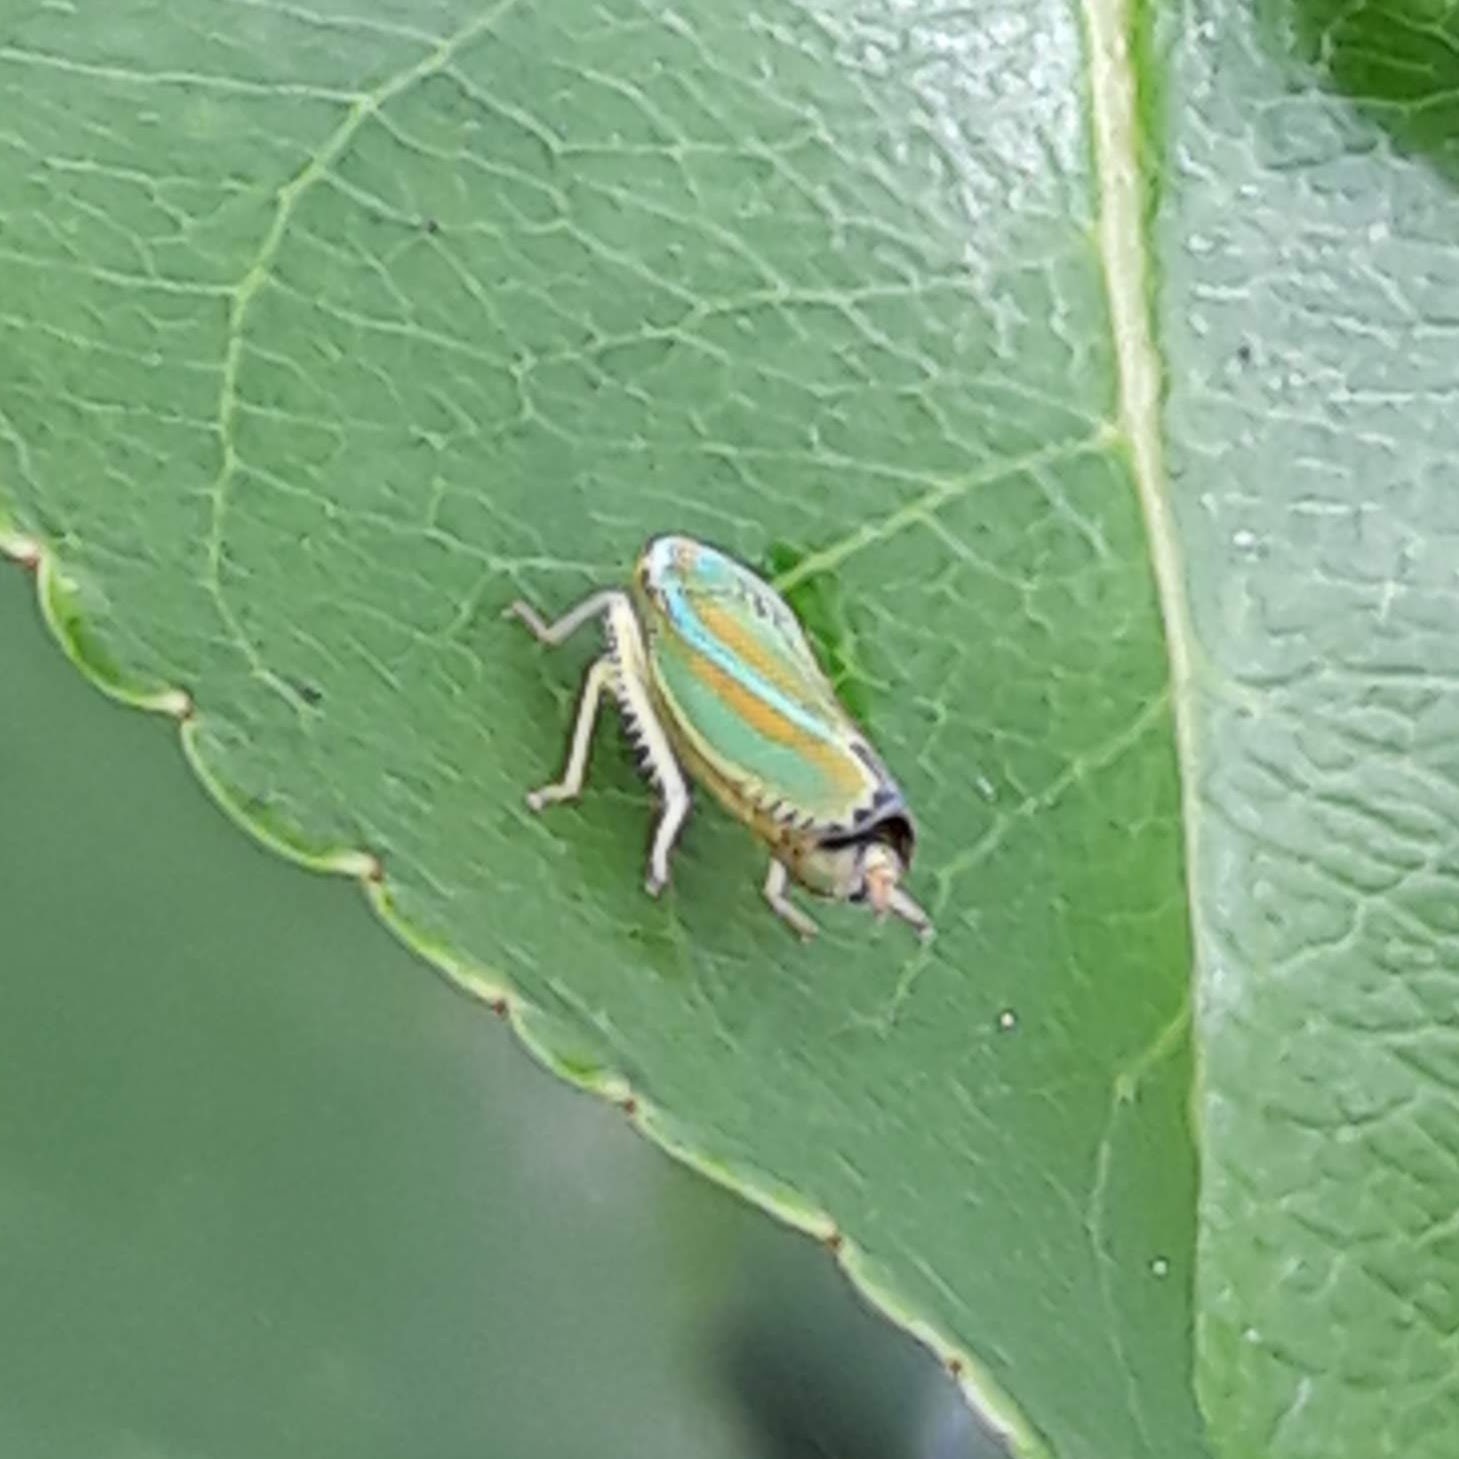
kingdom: Animalia
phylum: Arthropoda
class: Insecta
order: Hemiptera
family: Cicadellidae
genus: Graphocephala
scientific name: Graphocephala versuta
